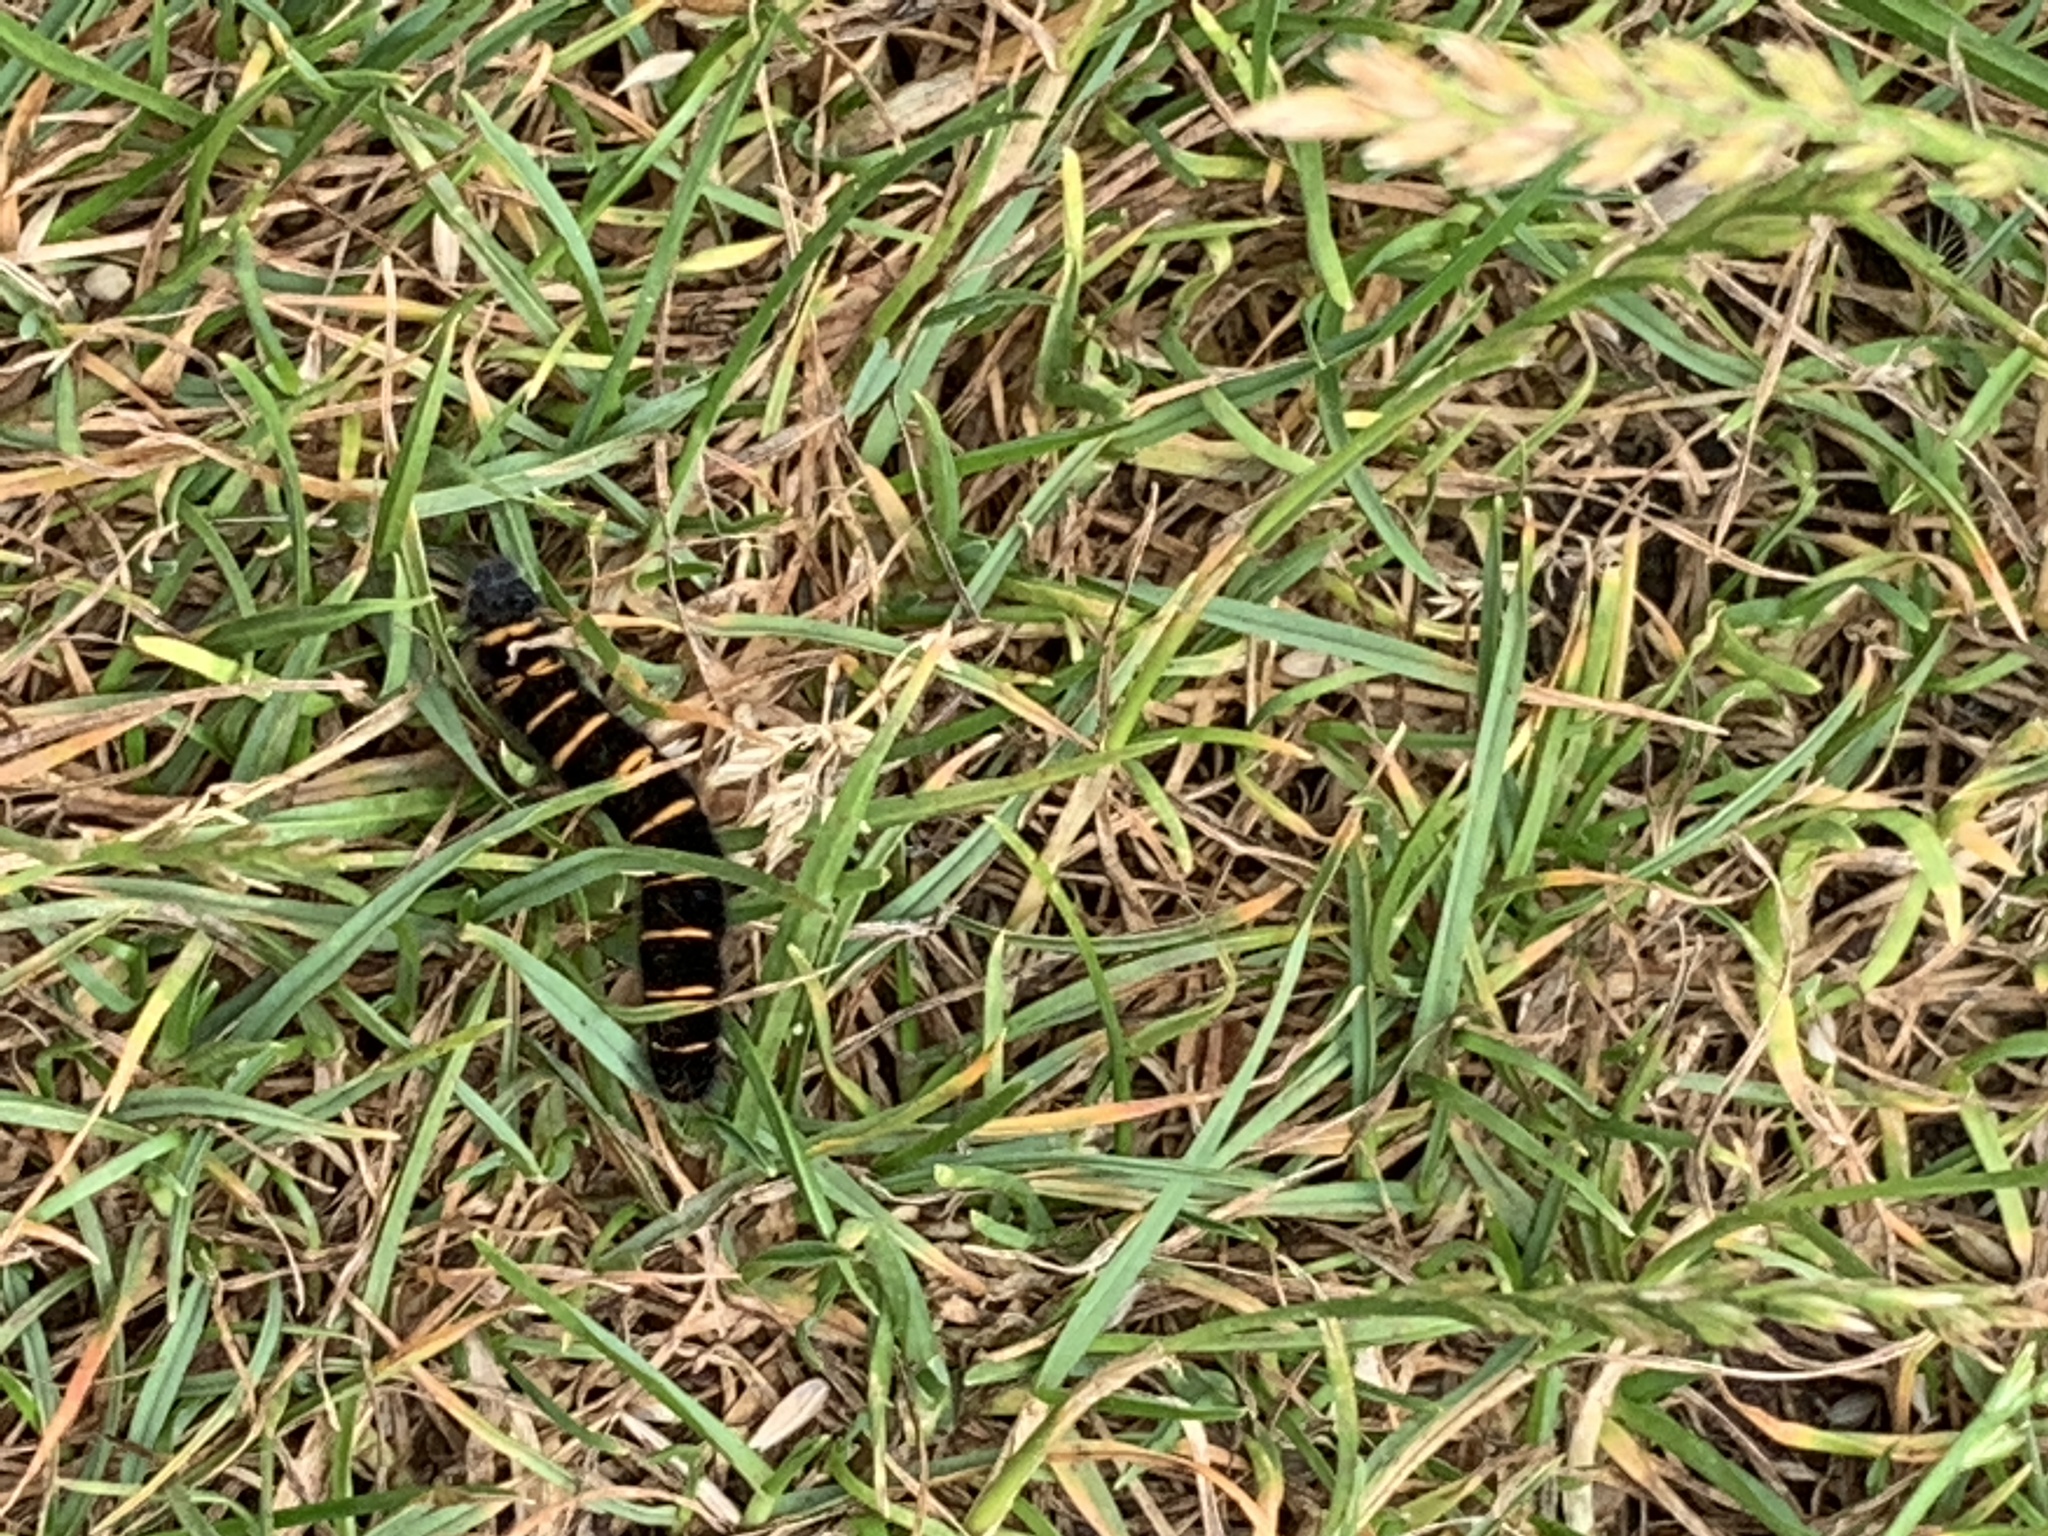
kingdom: Animalia
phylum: Arthropoda
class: Insecta
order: Lepidoptera
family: Lasiocampidae
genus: Macrothylacia
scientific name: Macrothylacia rubi
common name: Fox moth
